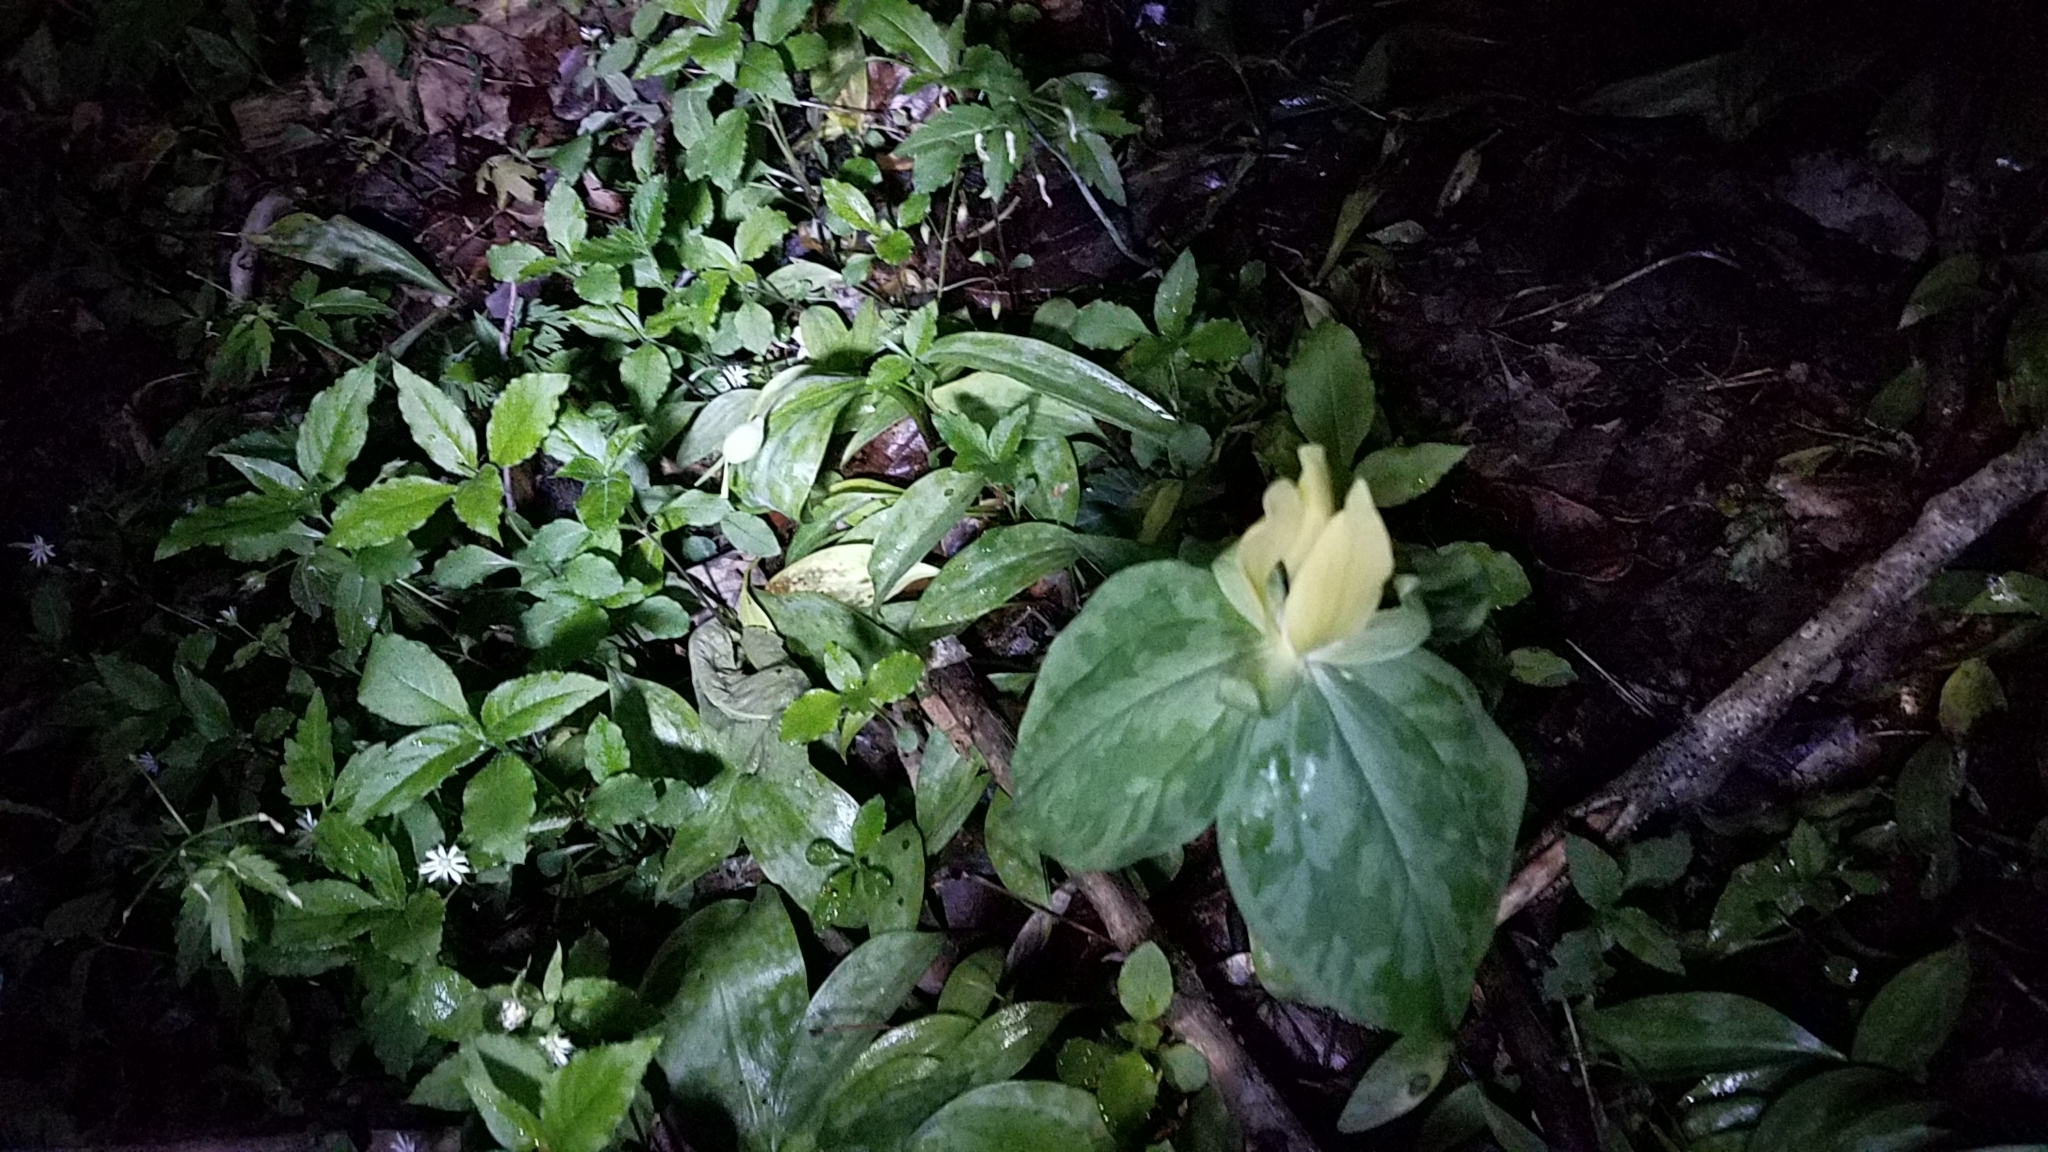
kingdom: Plantae
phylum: Tracheophyta
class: Liliopsida
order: Liliales
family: Melanthiaceae
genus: Trillium
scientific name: Trillium luteum
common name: Wax trillium
